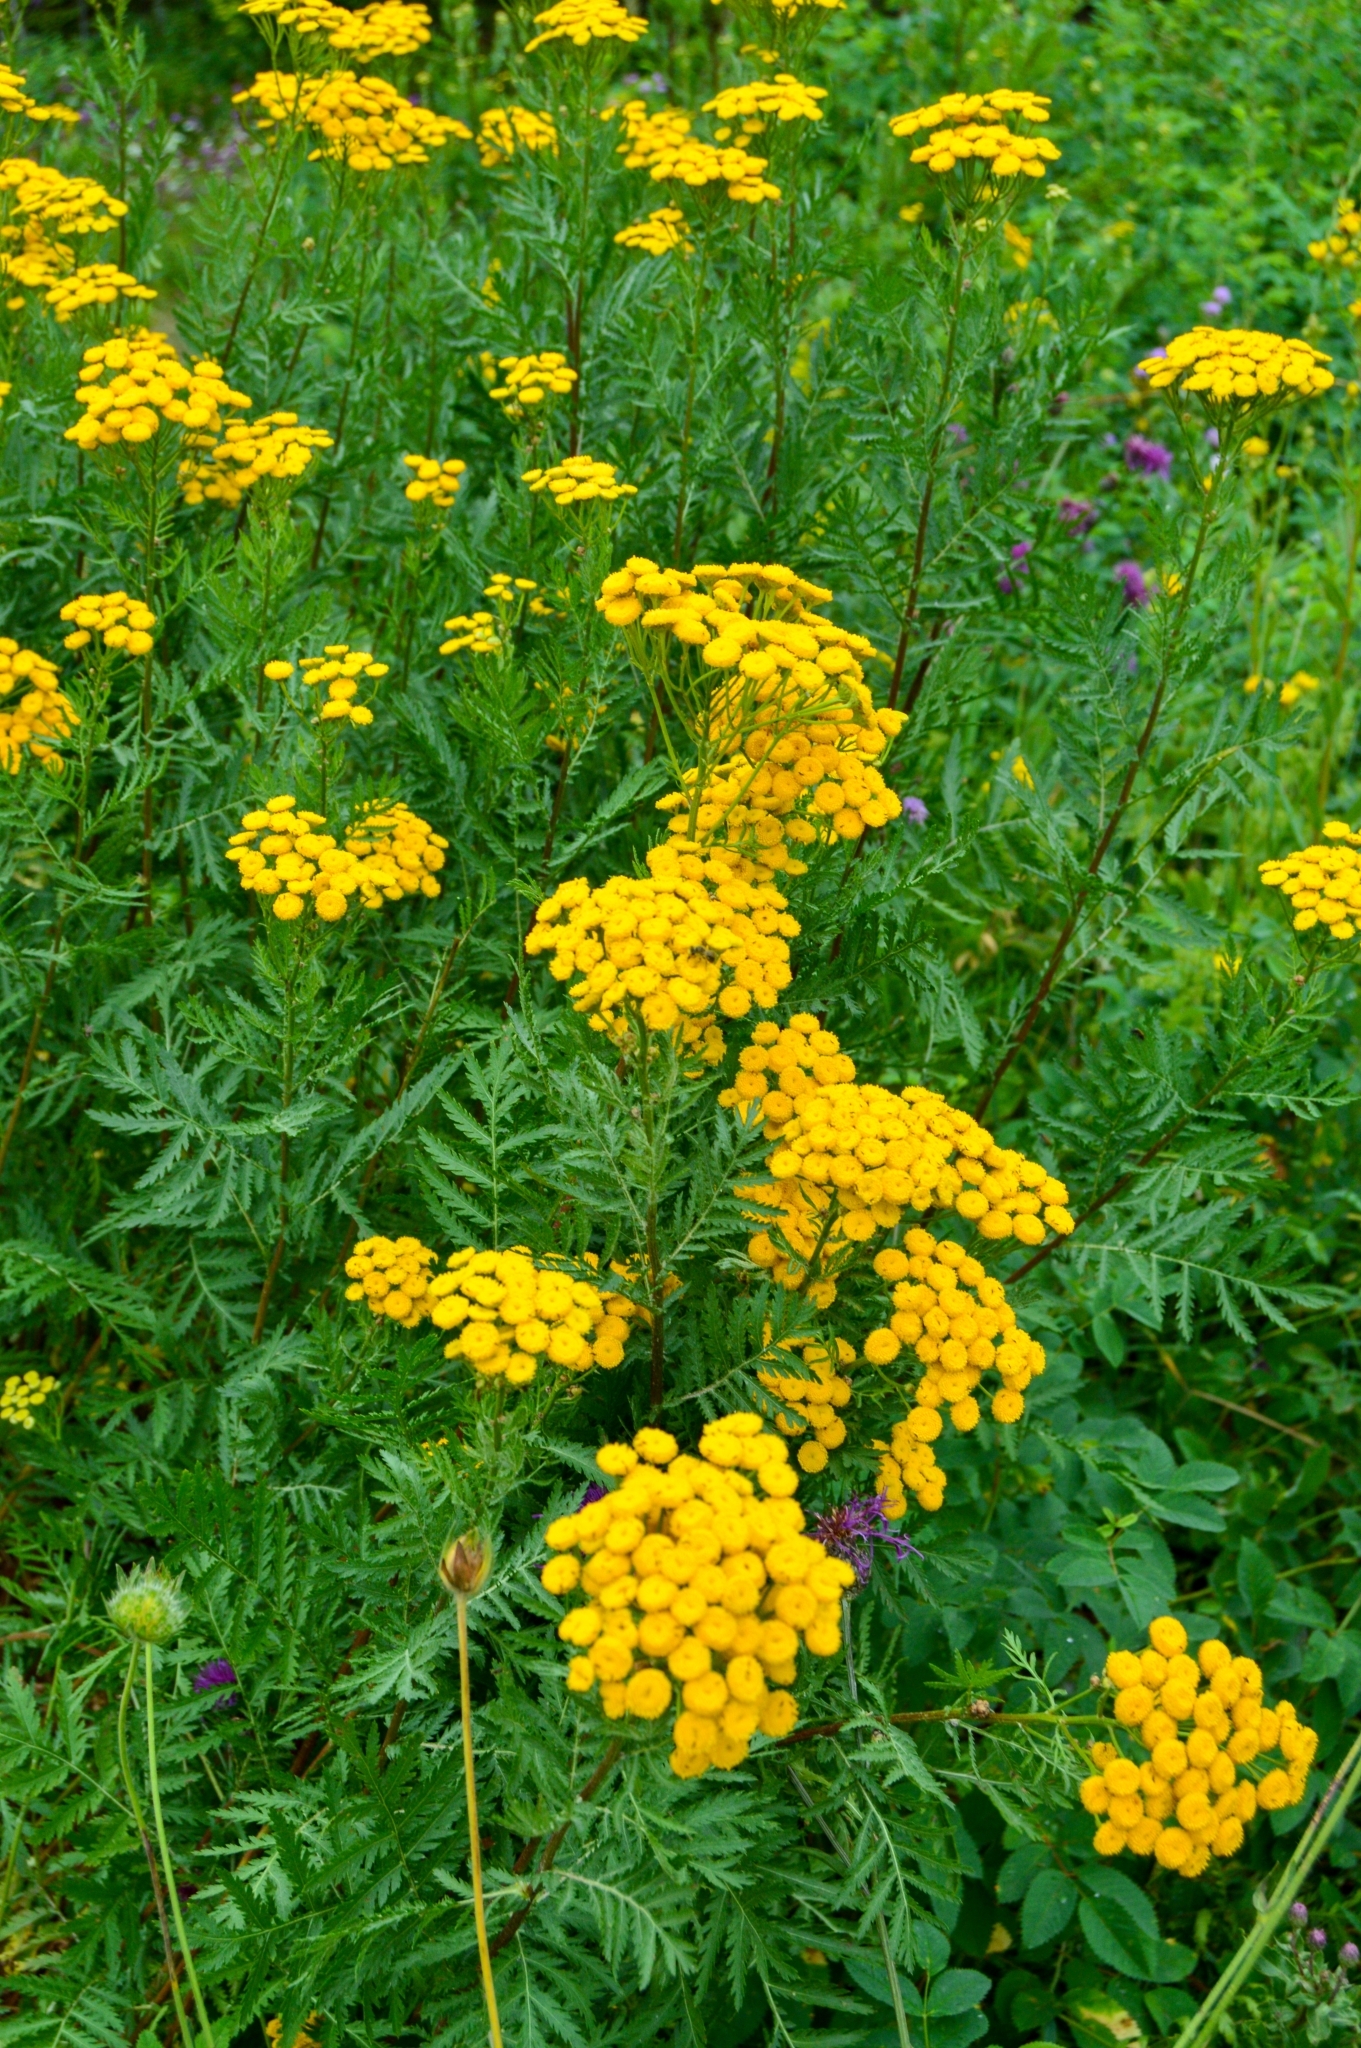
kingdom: Plantae
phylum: Tracheophyta
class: Magnoliopsida
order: Asterales
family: Asteraceae
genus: Tanacetum
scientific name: Tanacetum vulgare
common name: Common tansy
